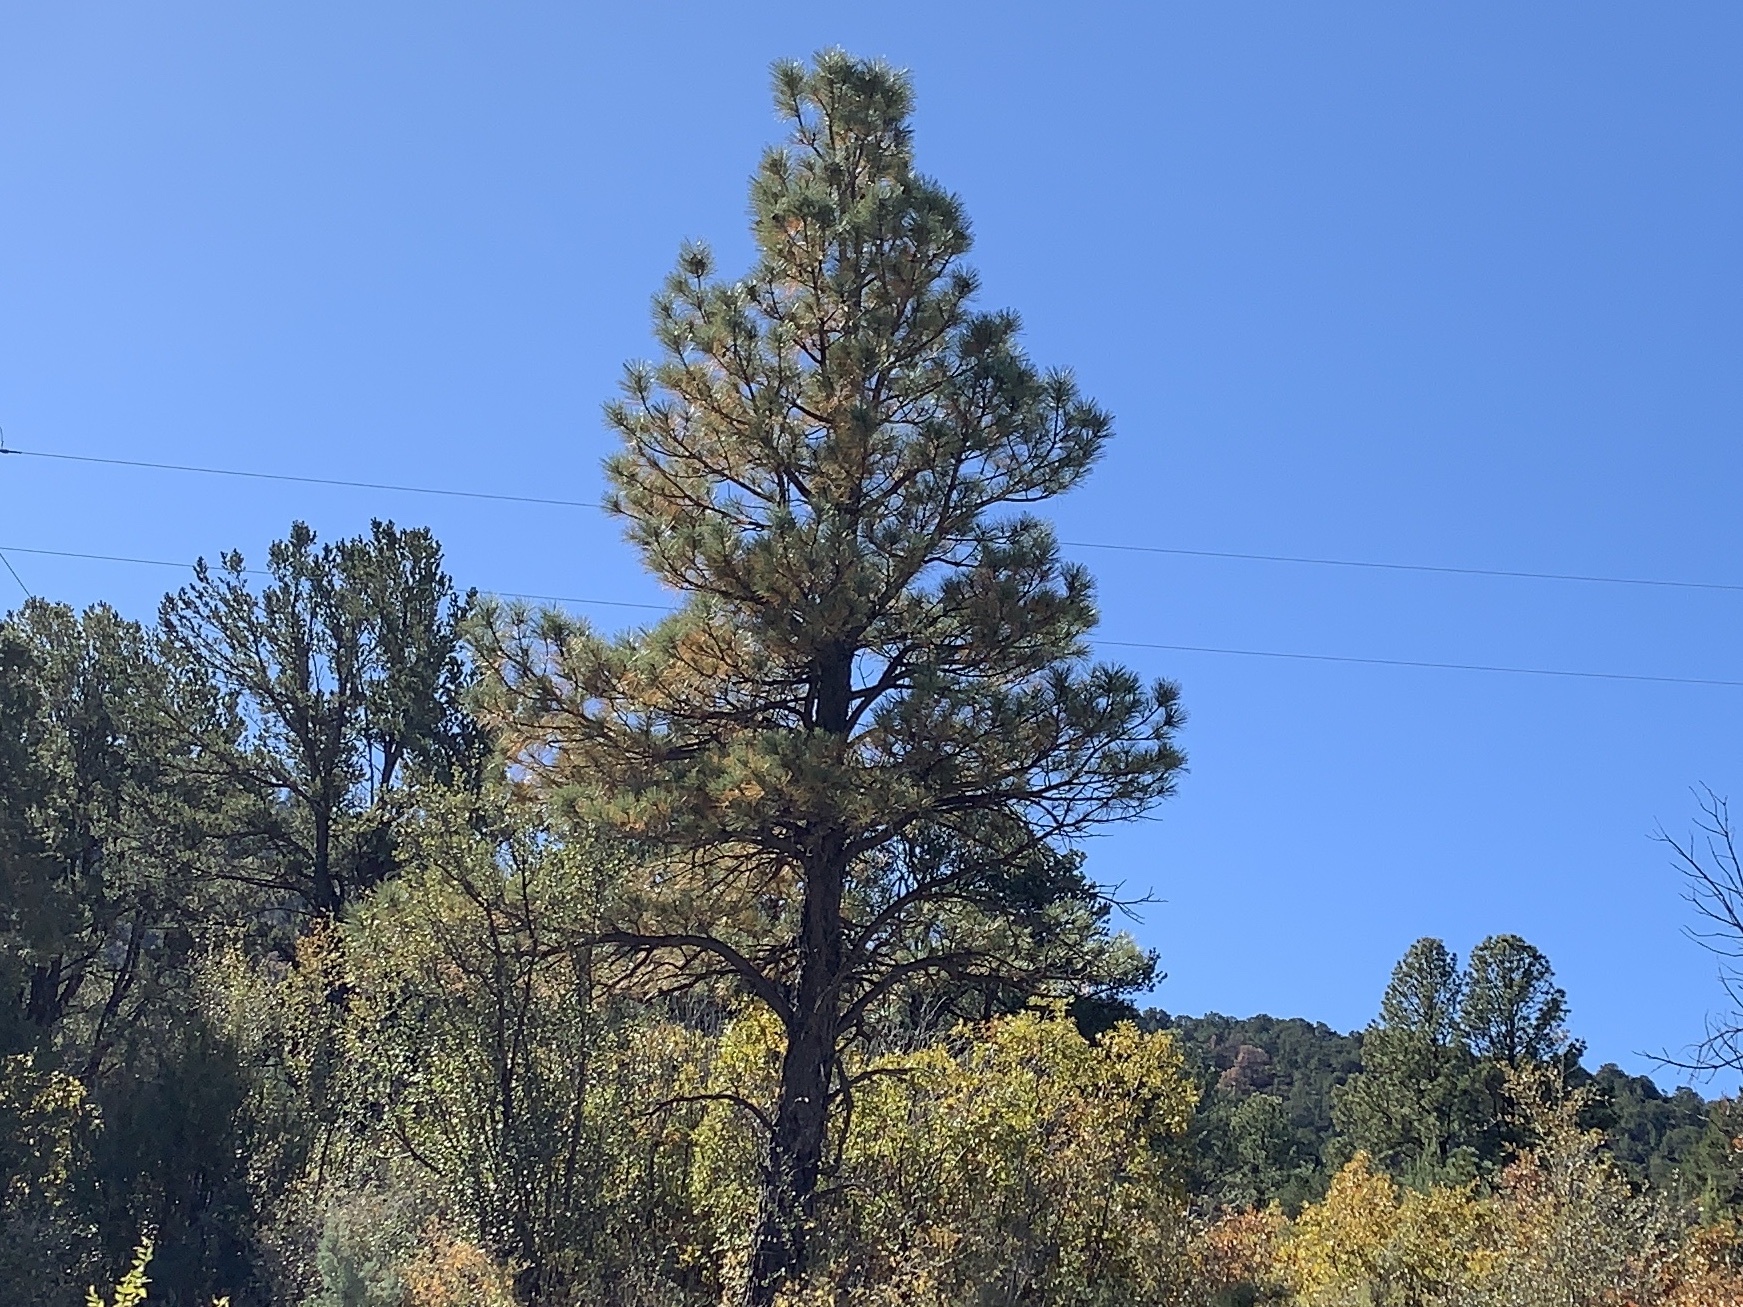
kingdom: Plantae
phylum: Tracheophyta
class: Pinopsida
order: Pinales
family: Pinaceae
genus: Pinus
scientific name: Pinus ponderosa
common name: Western yellow-pine
